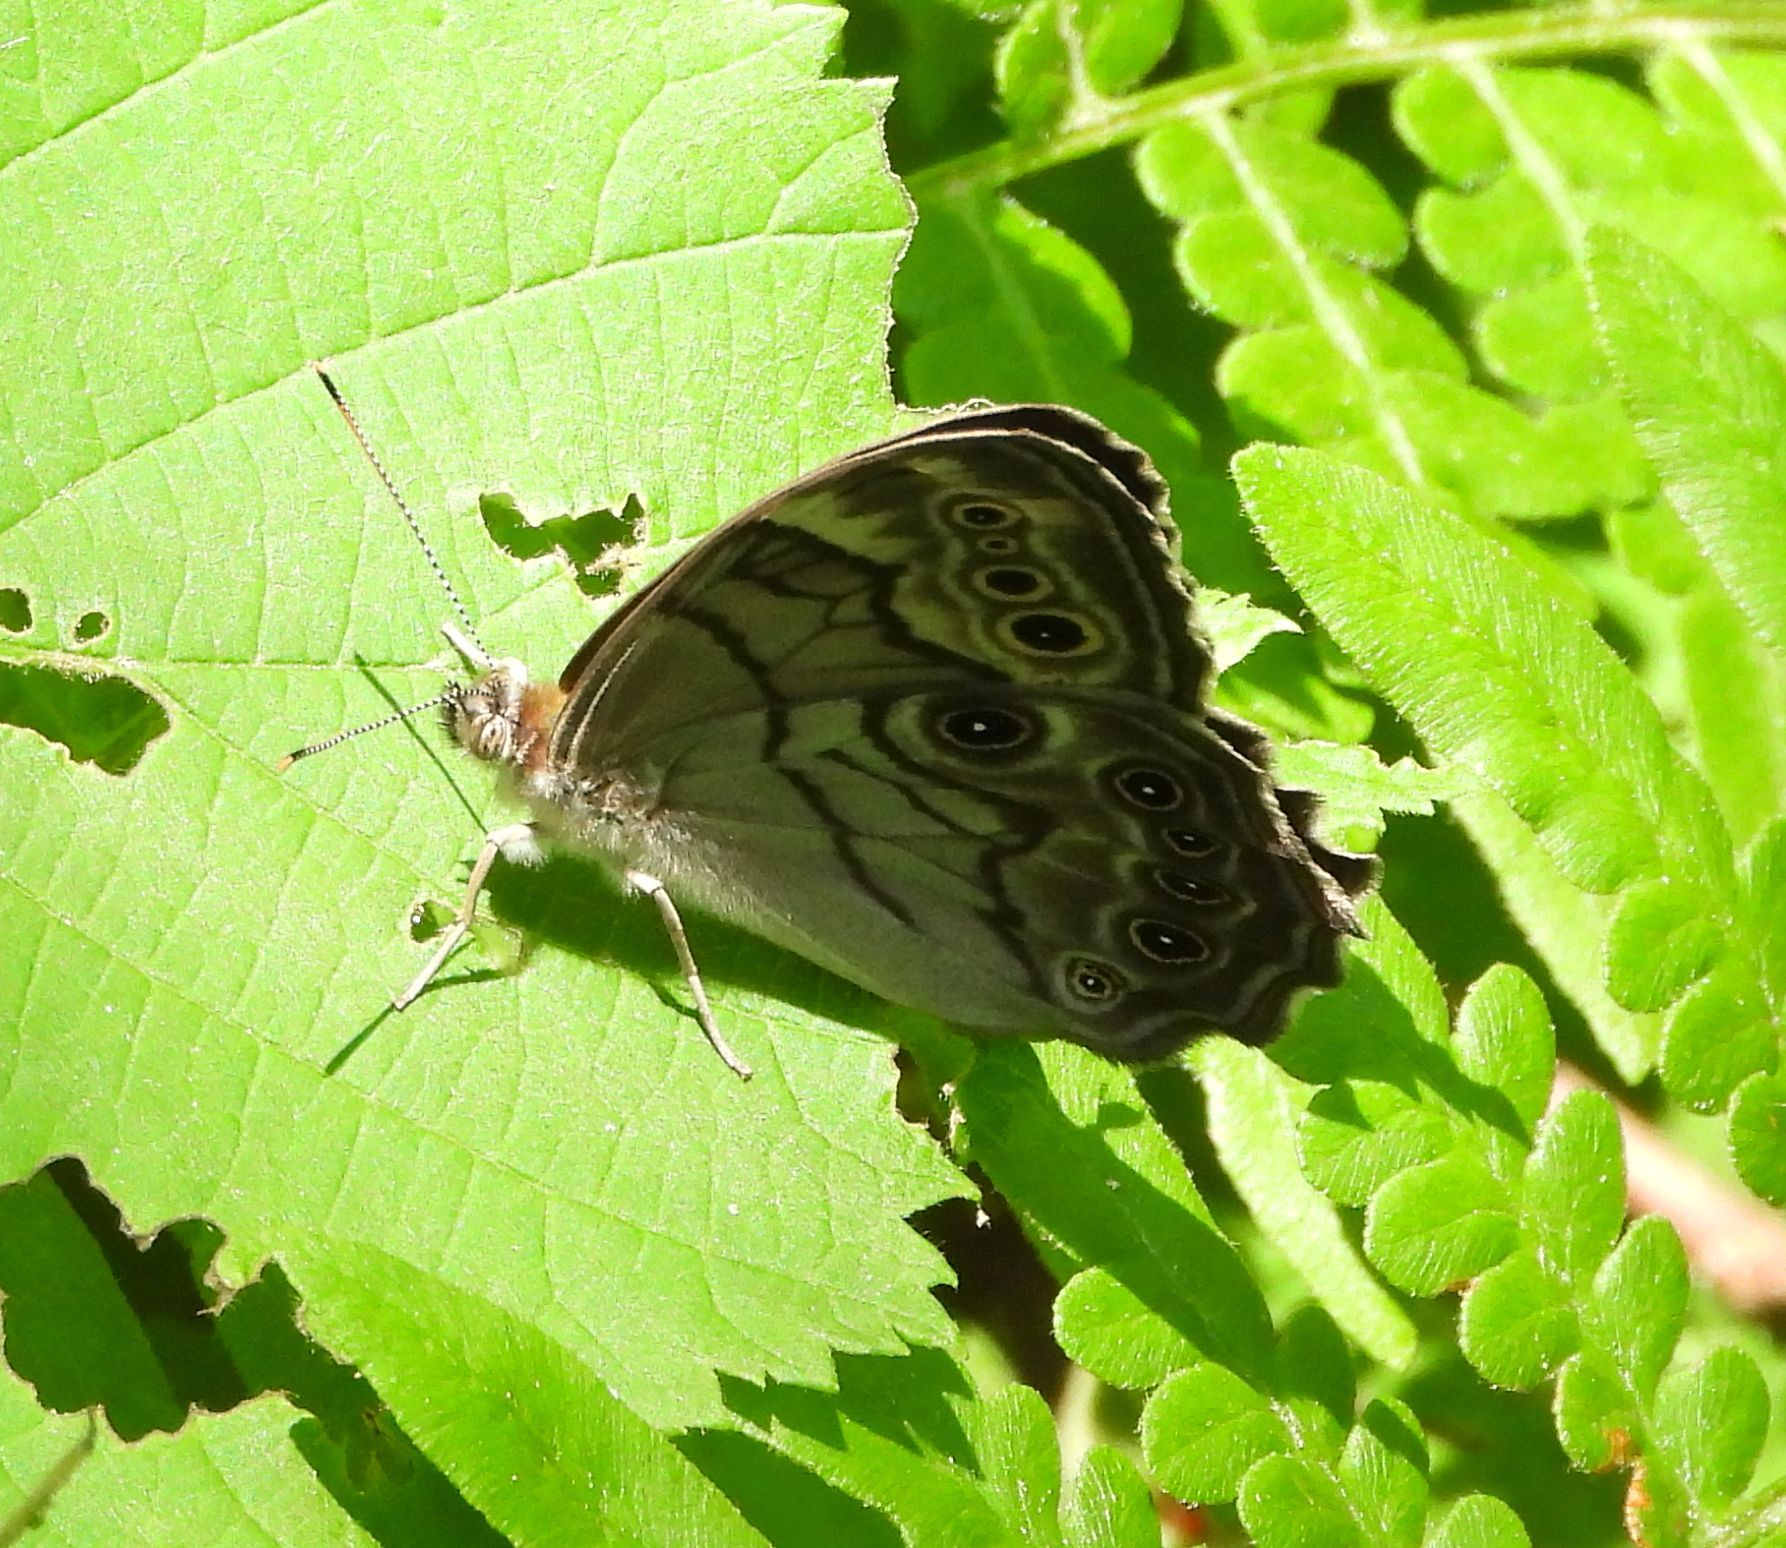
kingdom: Animalia
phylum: Arthropoda
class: Insecta
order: Lepidoptera
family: Nymphalidae
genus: Lethe
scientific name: Lethe anthedon
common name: Northern pearly-eye
